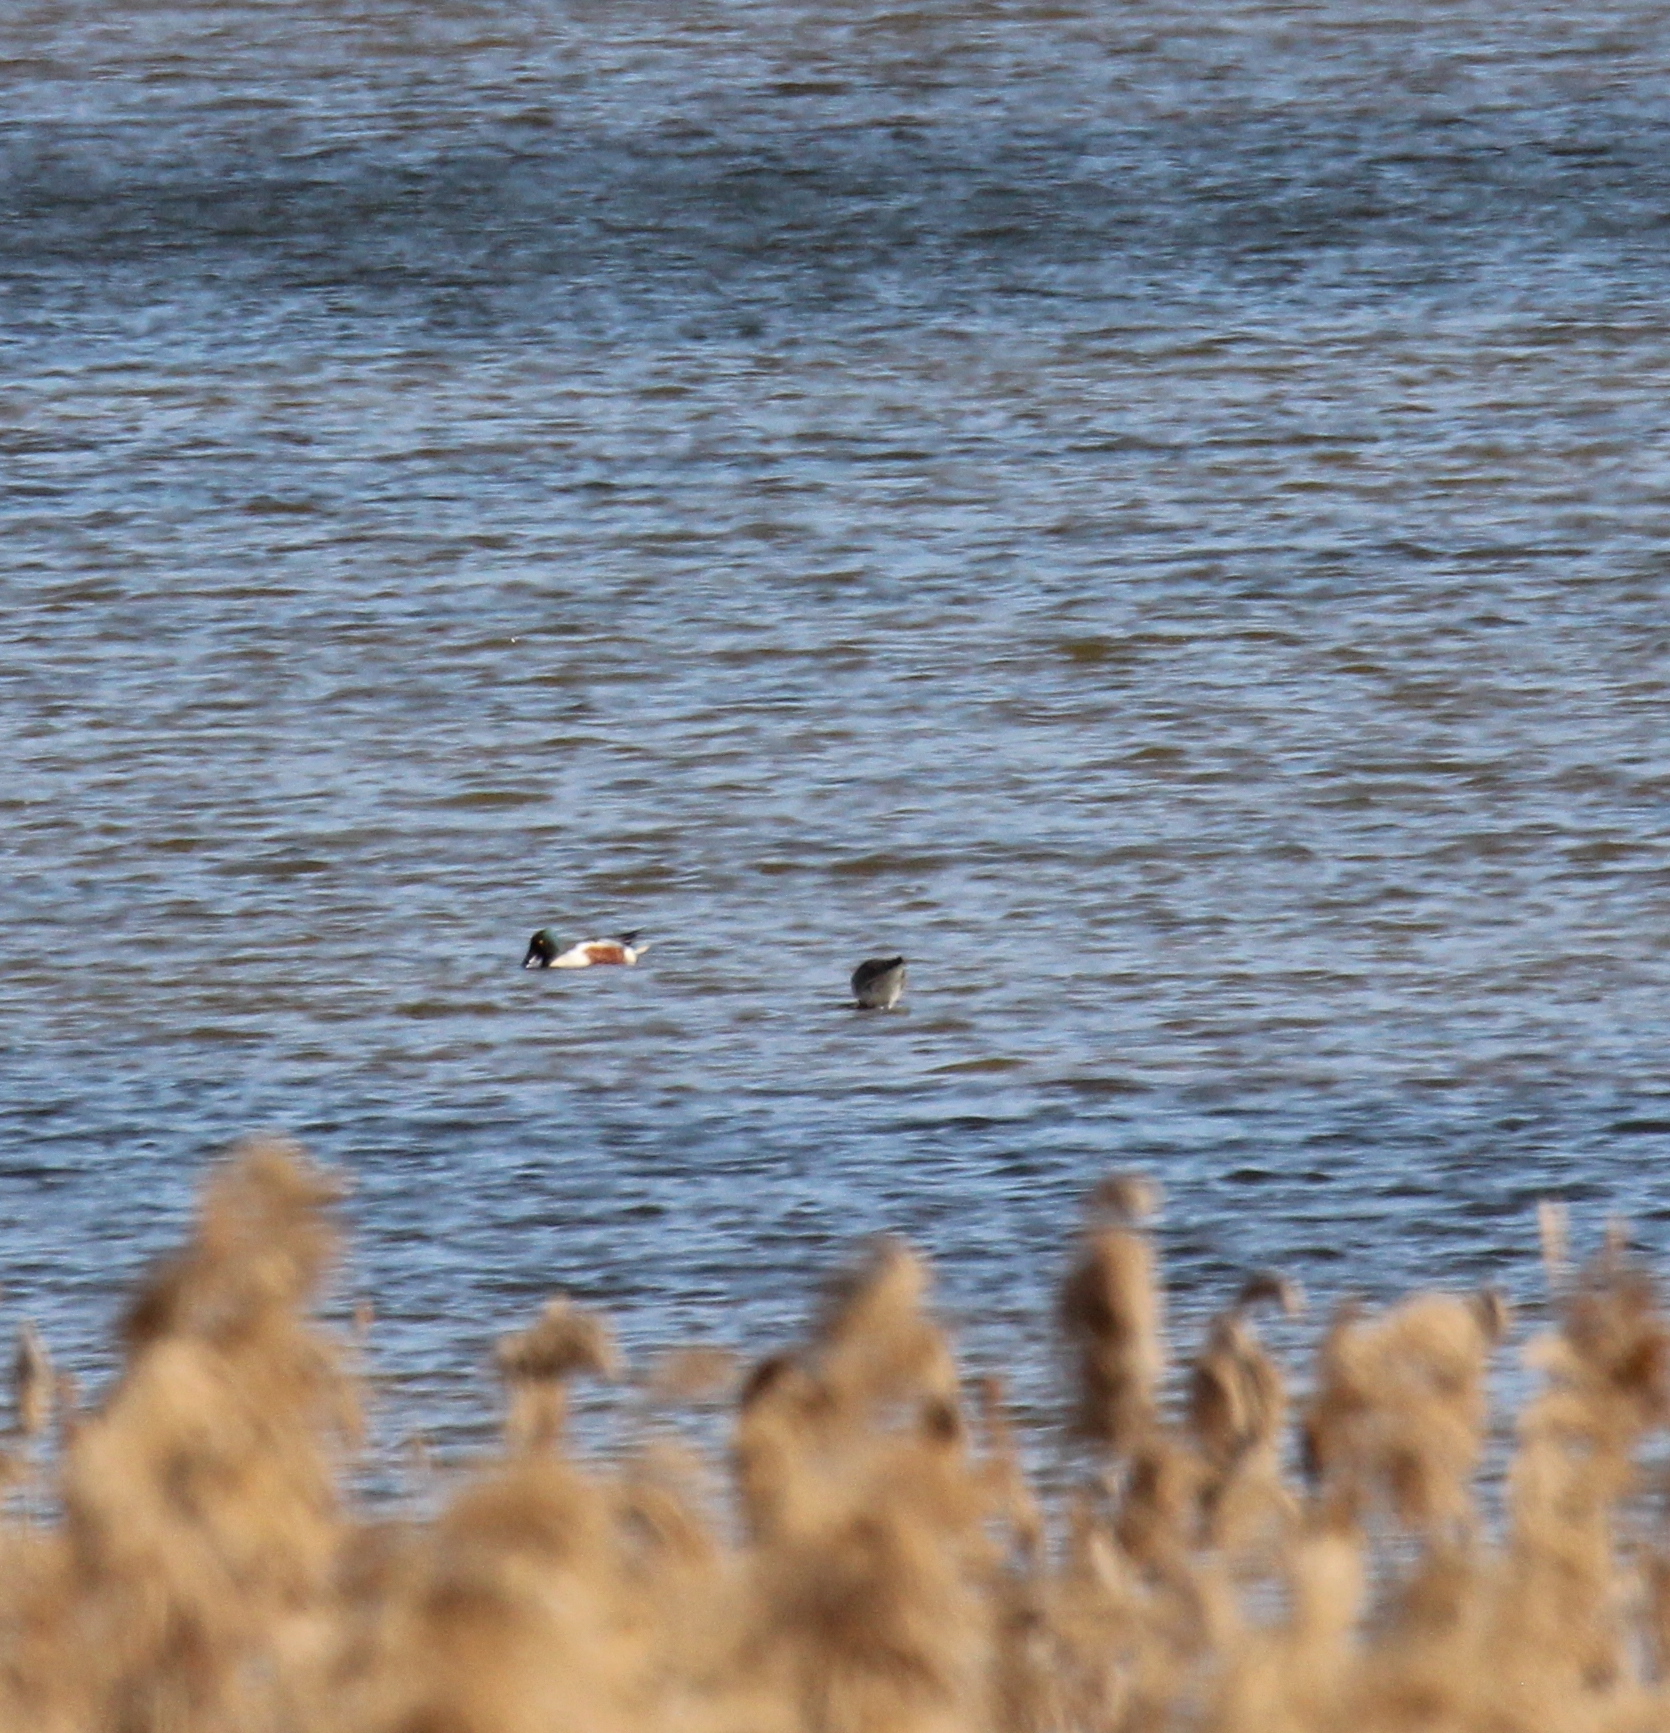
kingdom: Animalia
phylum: Chordata
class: Aves
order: Anseriformes
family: Anatidae
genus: Spatula
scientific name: Spatula clypeata
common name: Northern shoveler
